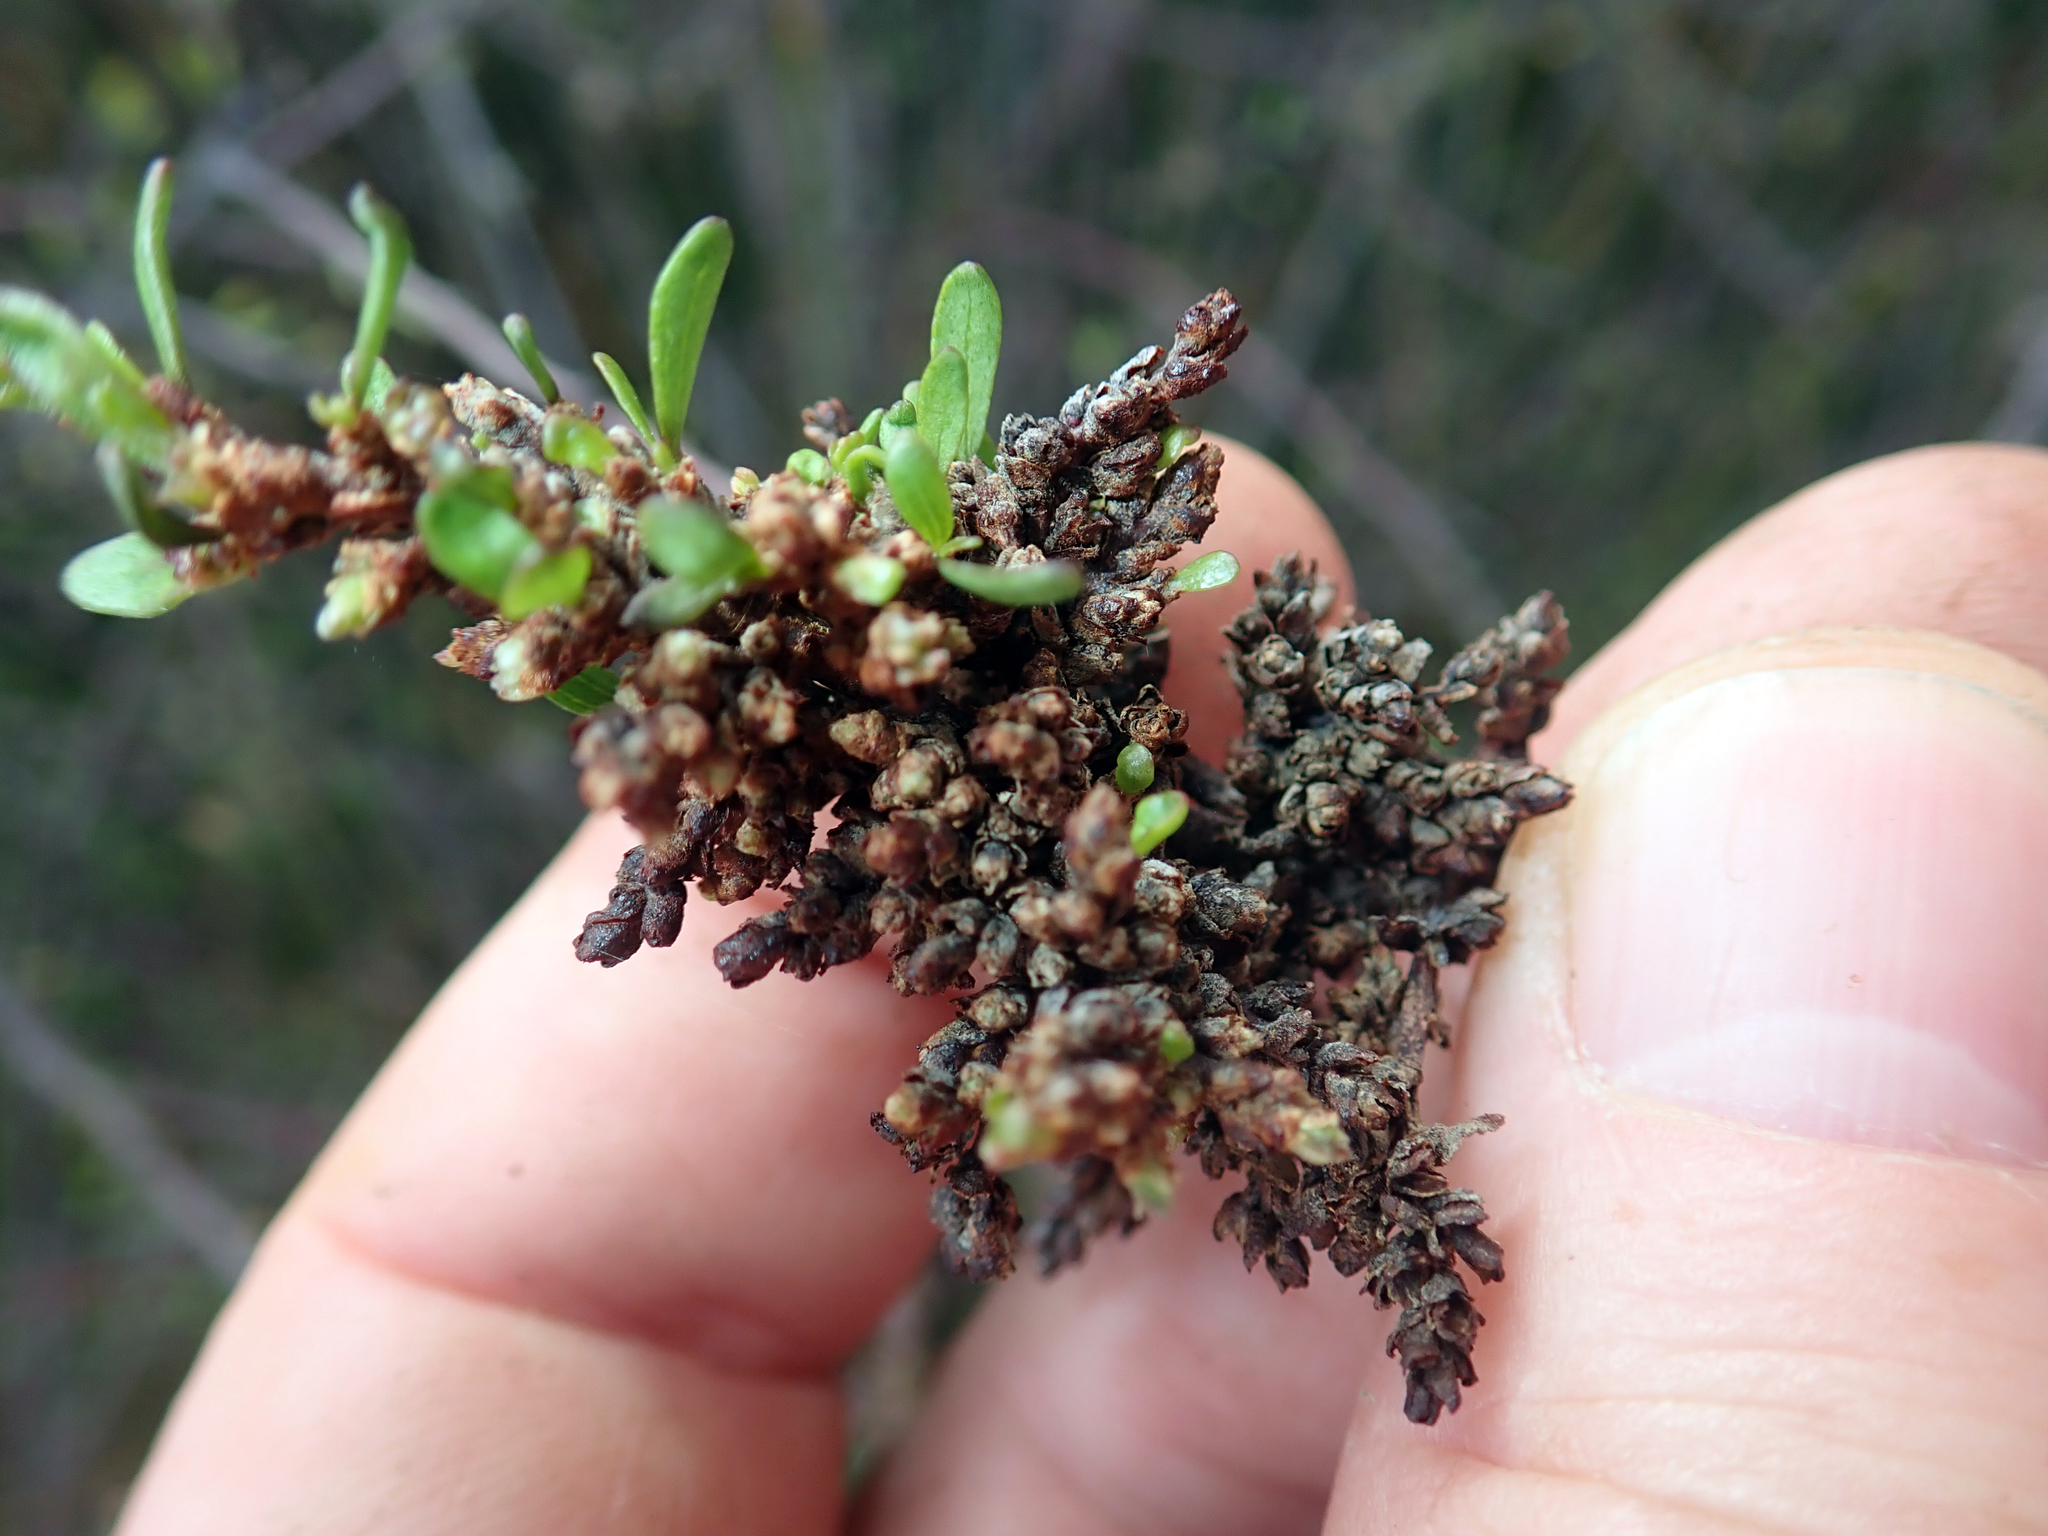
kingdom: Animalia
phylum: Arthropoda
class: Arachnida
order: Trombidiformes
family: Eriophyidae
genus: Eriophyes
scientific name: Eriophyes plaginus
